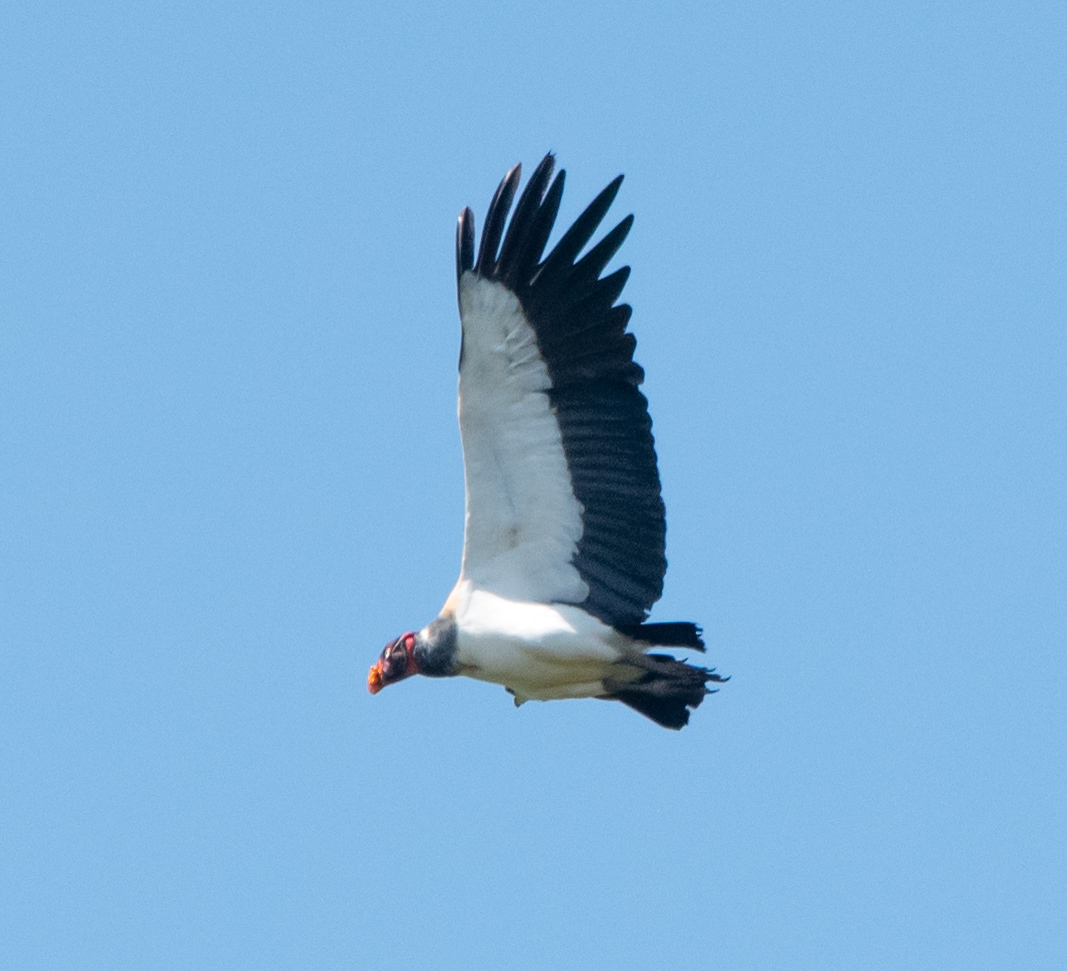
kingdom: Animalia
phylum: Chordata
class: Aves
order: Accipitriformes
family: Cathartidae
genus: Sarcoramphus
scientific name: Sarcoramphus papa
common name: King vulture
